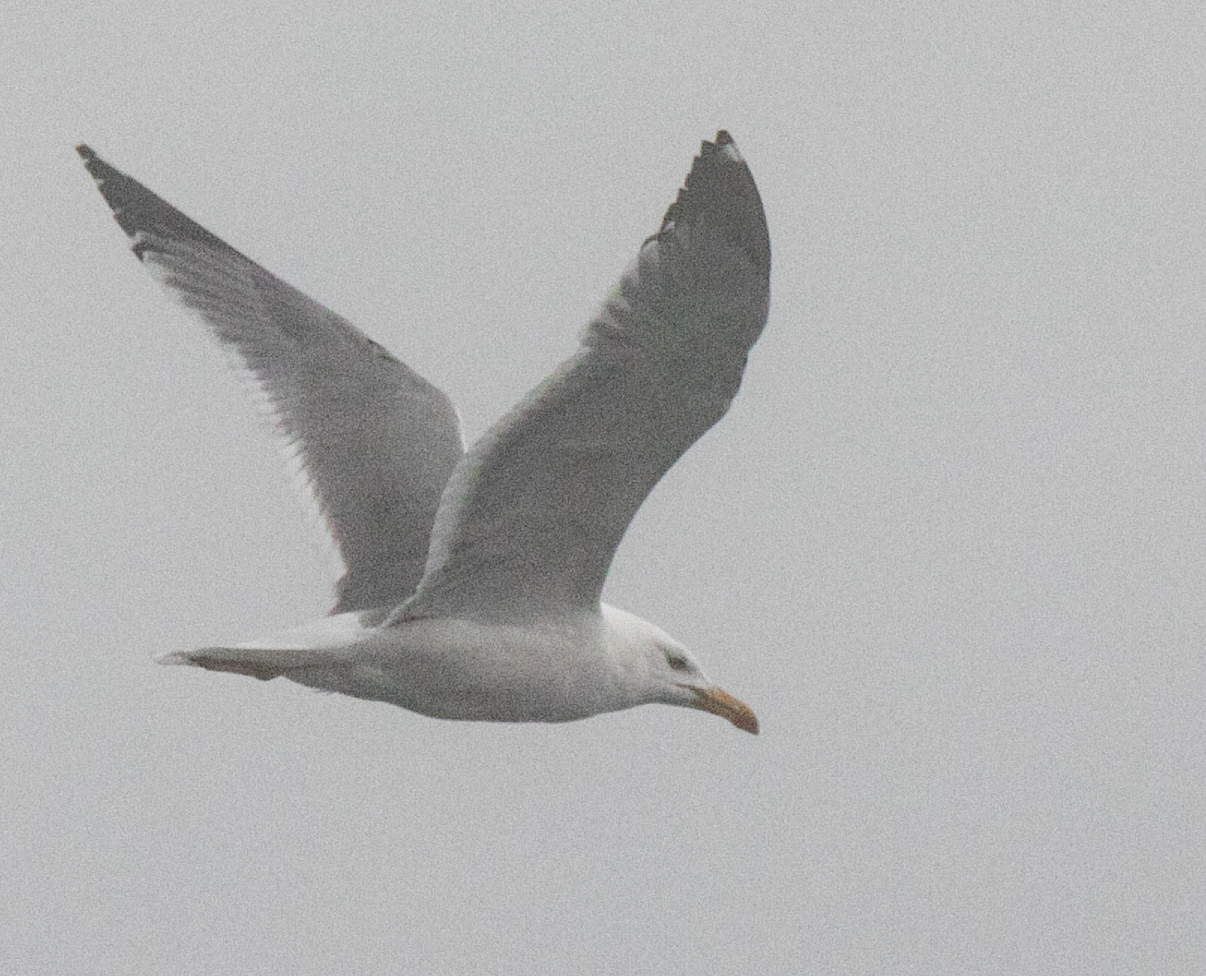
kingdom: Animalia
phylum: Chordata
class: Aves
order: Charadriiformes
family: Laridae
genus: Larus
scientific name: Larus michahellis
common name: Yellow-legged gull
